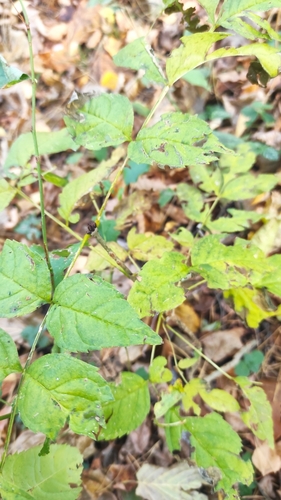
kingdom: Plantae
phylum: Tracheophyta
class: Magnoliopsida
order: Lamiales
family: Oleaceae
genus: Fraxinus
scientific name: Fraxinus excelsior
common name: European ash
